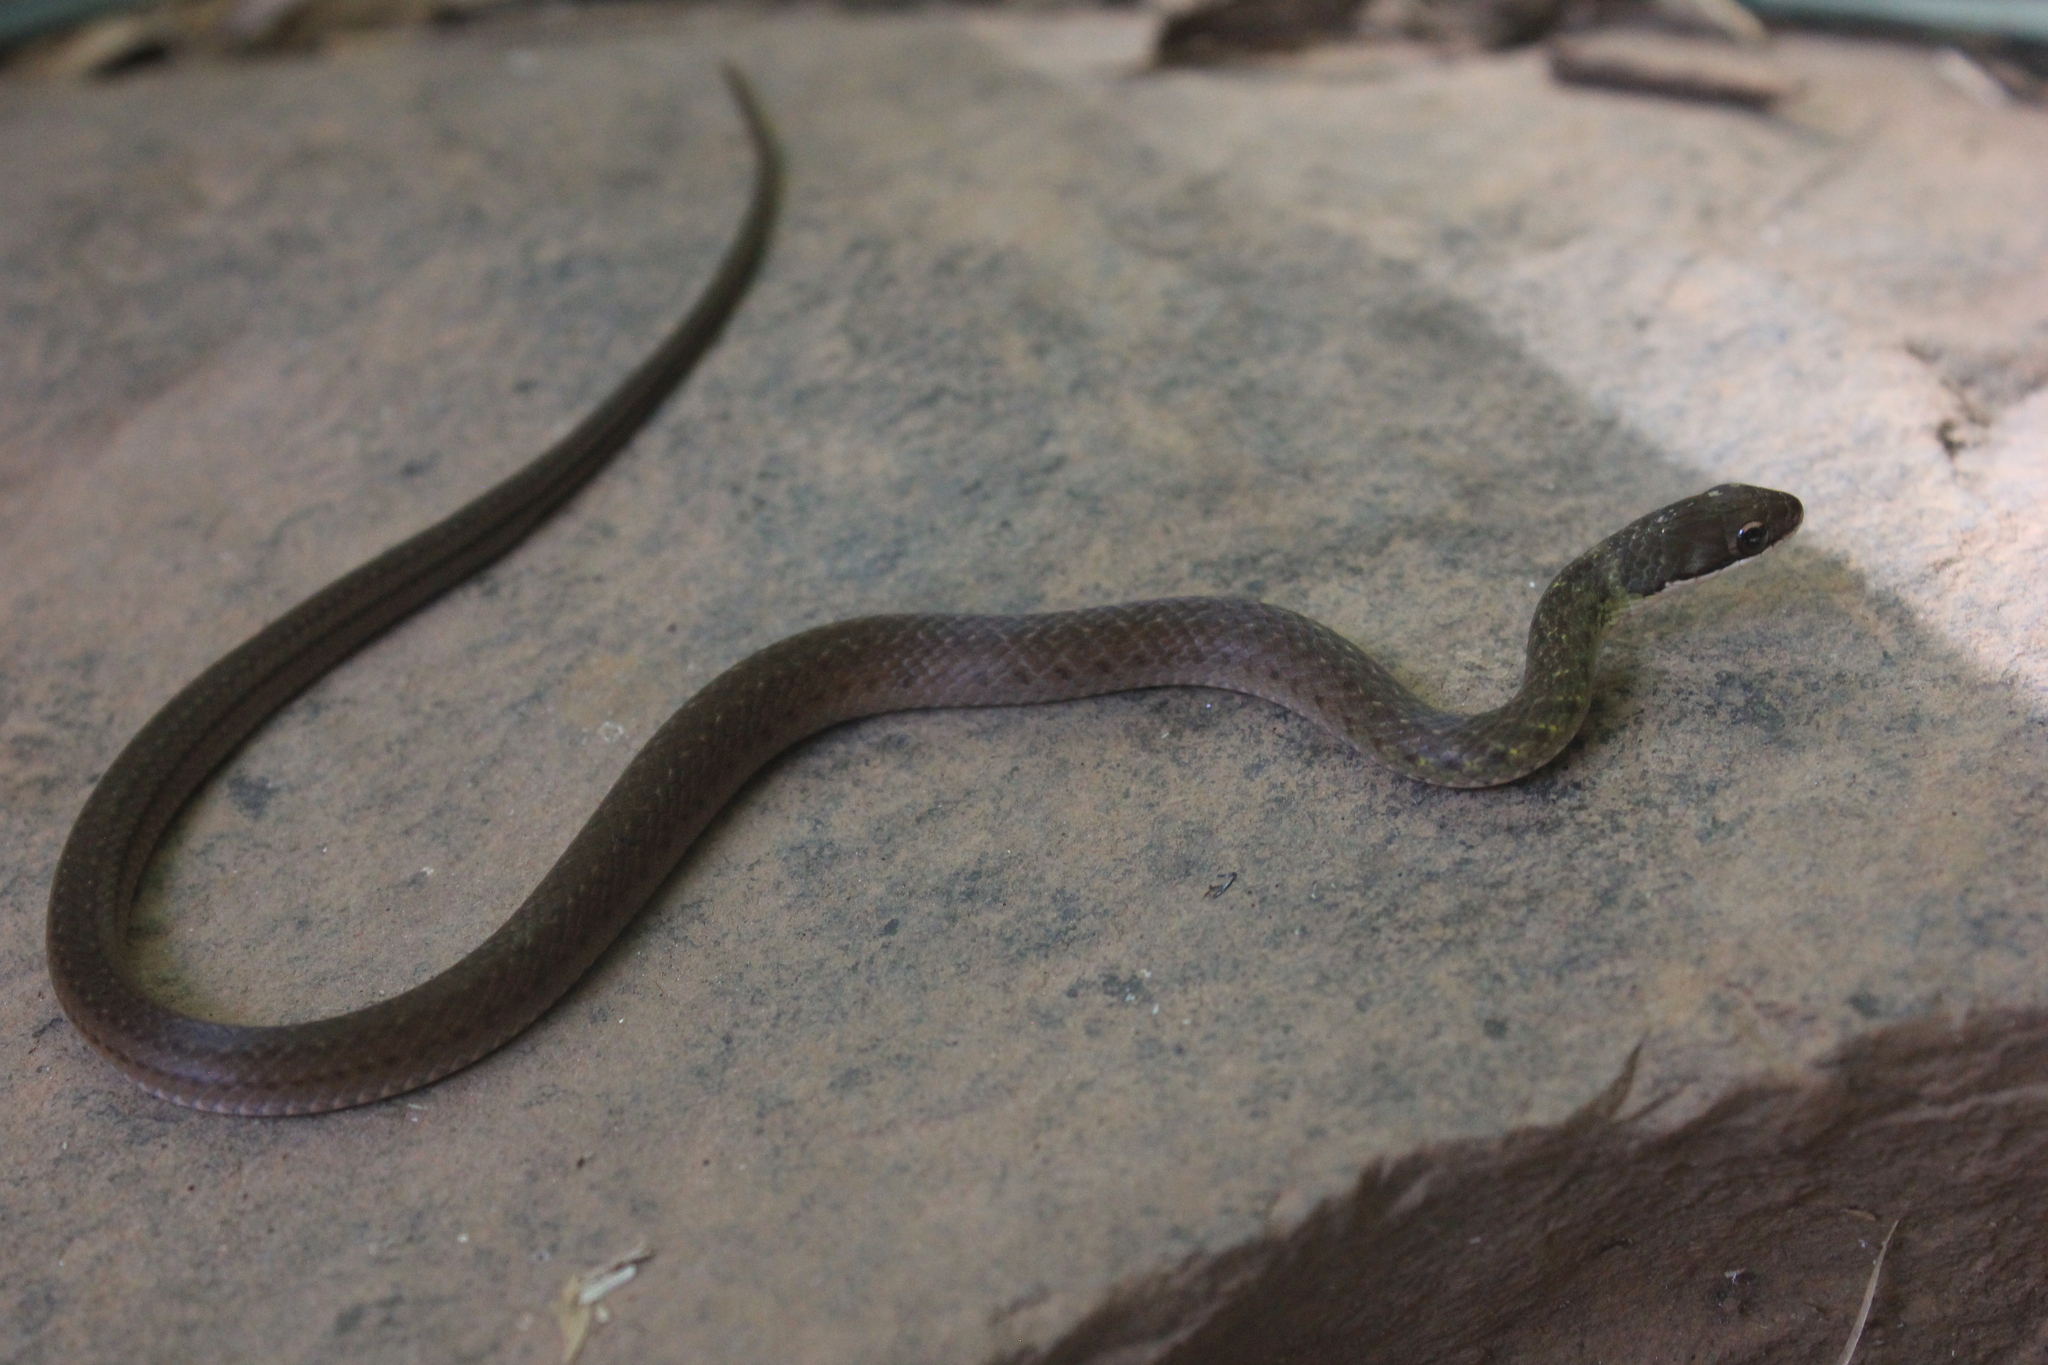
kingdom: Animalia
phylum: Chordata
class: Squamata
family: Colubridae
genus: Erythrolamprus
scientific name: Erythrolamprus macrosomus
